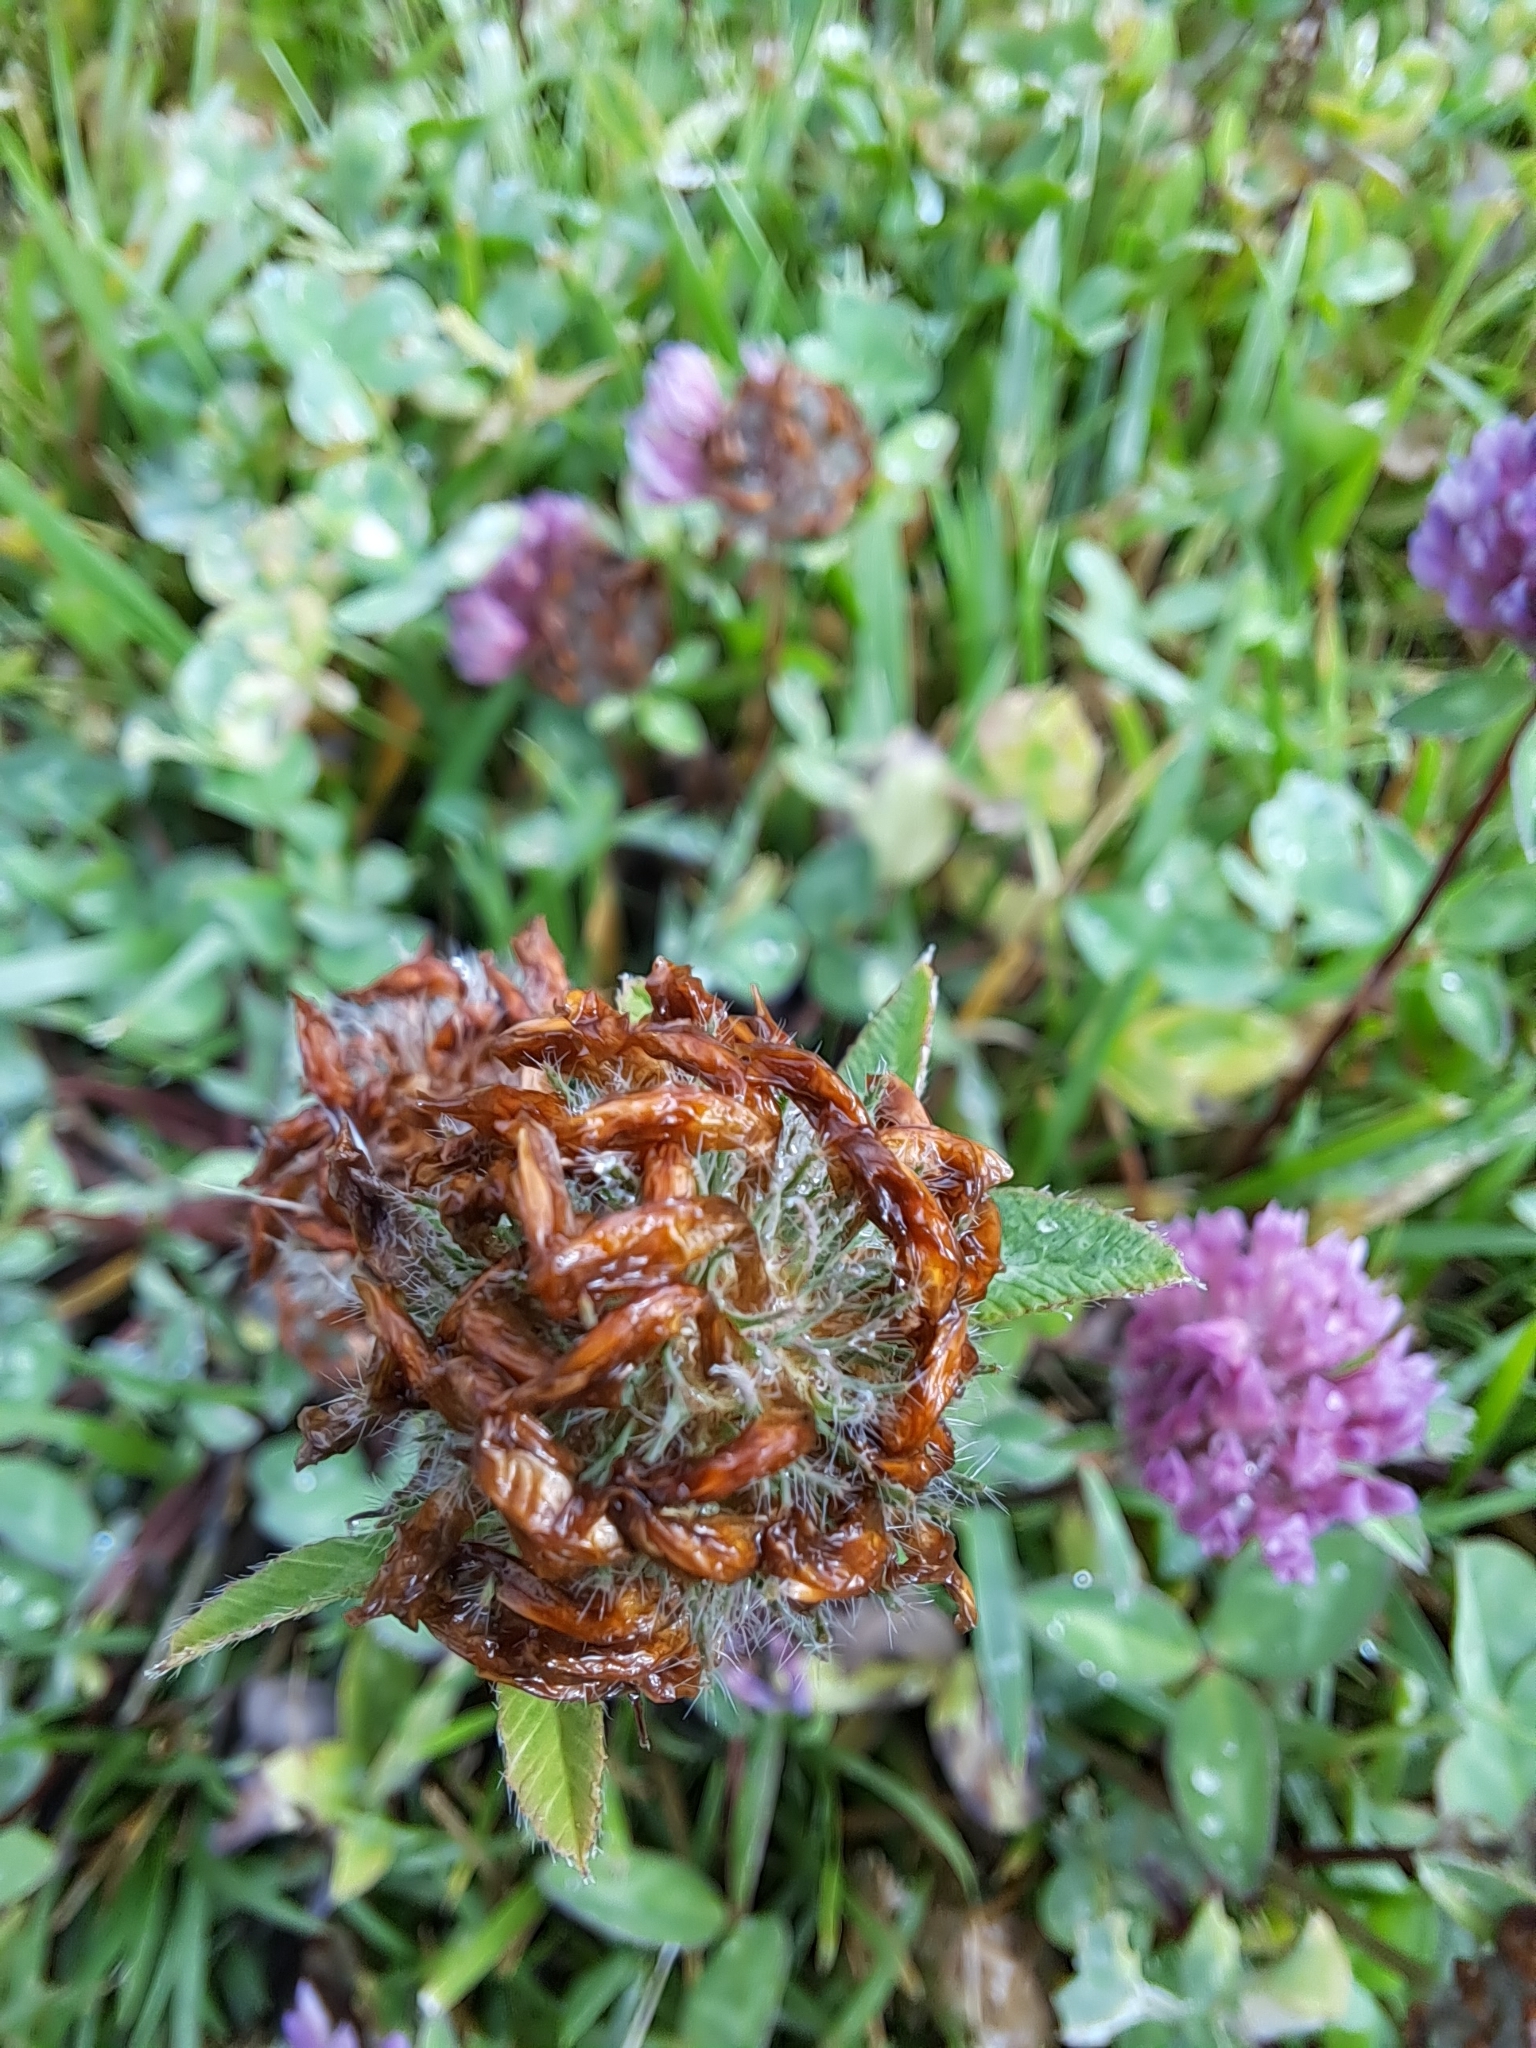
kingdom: Plantae
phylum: Tracheophyta
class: Magnoliopsida
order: Fabales
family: Fabaceae
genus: Trifolium
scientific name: Trifolium pratense
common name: Red clover
